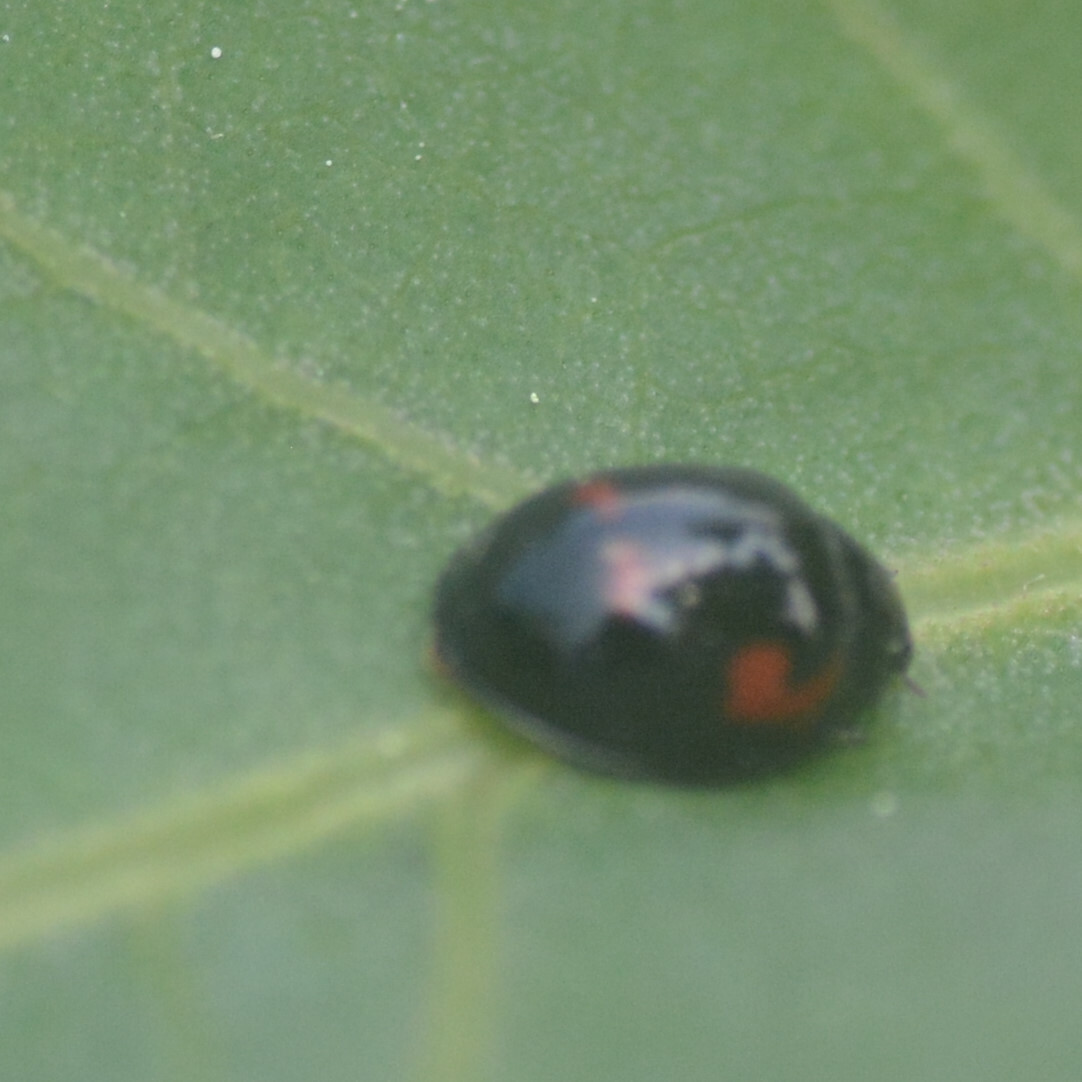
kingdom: Animalia
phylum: Arthropoda
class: Insecta
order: Coleoptera
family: Coccinellidae
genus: Brumus
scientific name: Brumus quadripustulatus
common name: Ladybird beetle
